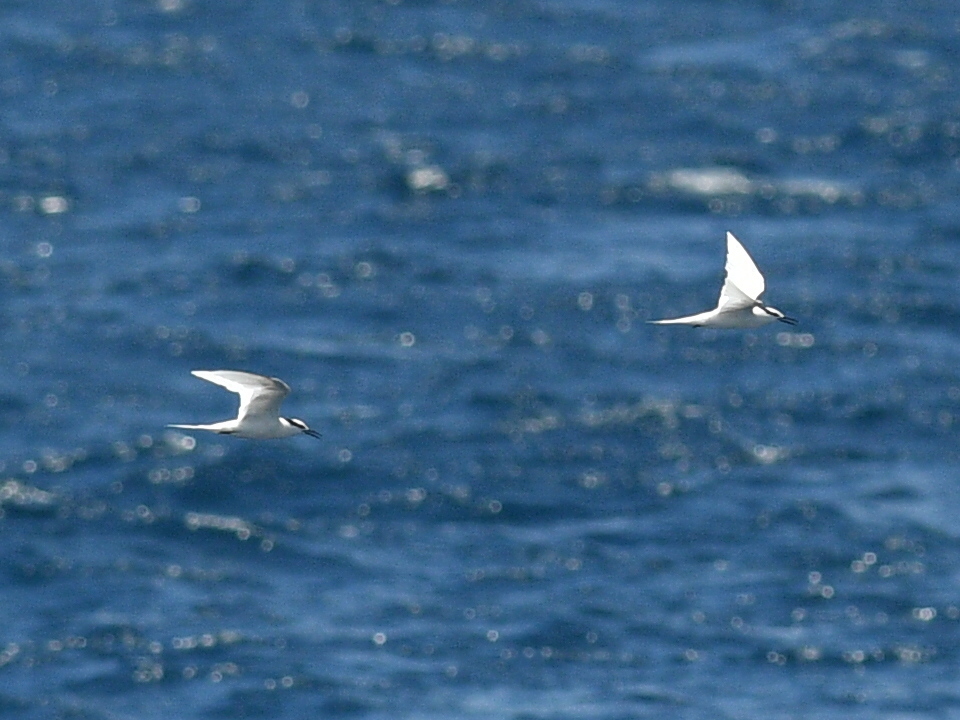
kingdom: Animalia
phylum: Chordata
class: Aves
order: Charadriiformes
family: Laridae
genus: Sterna
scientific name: Sterna sumatrana
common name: Black-naped tern
